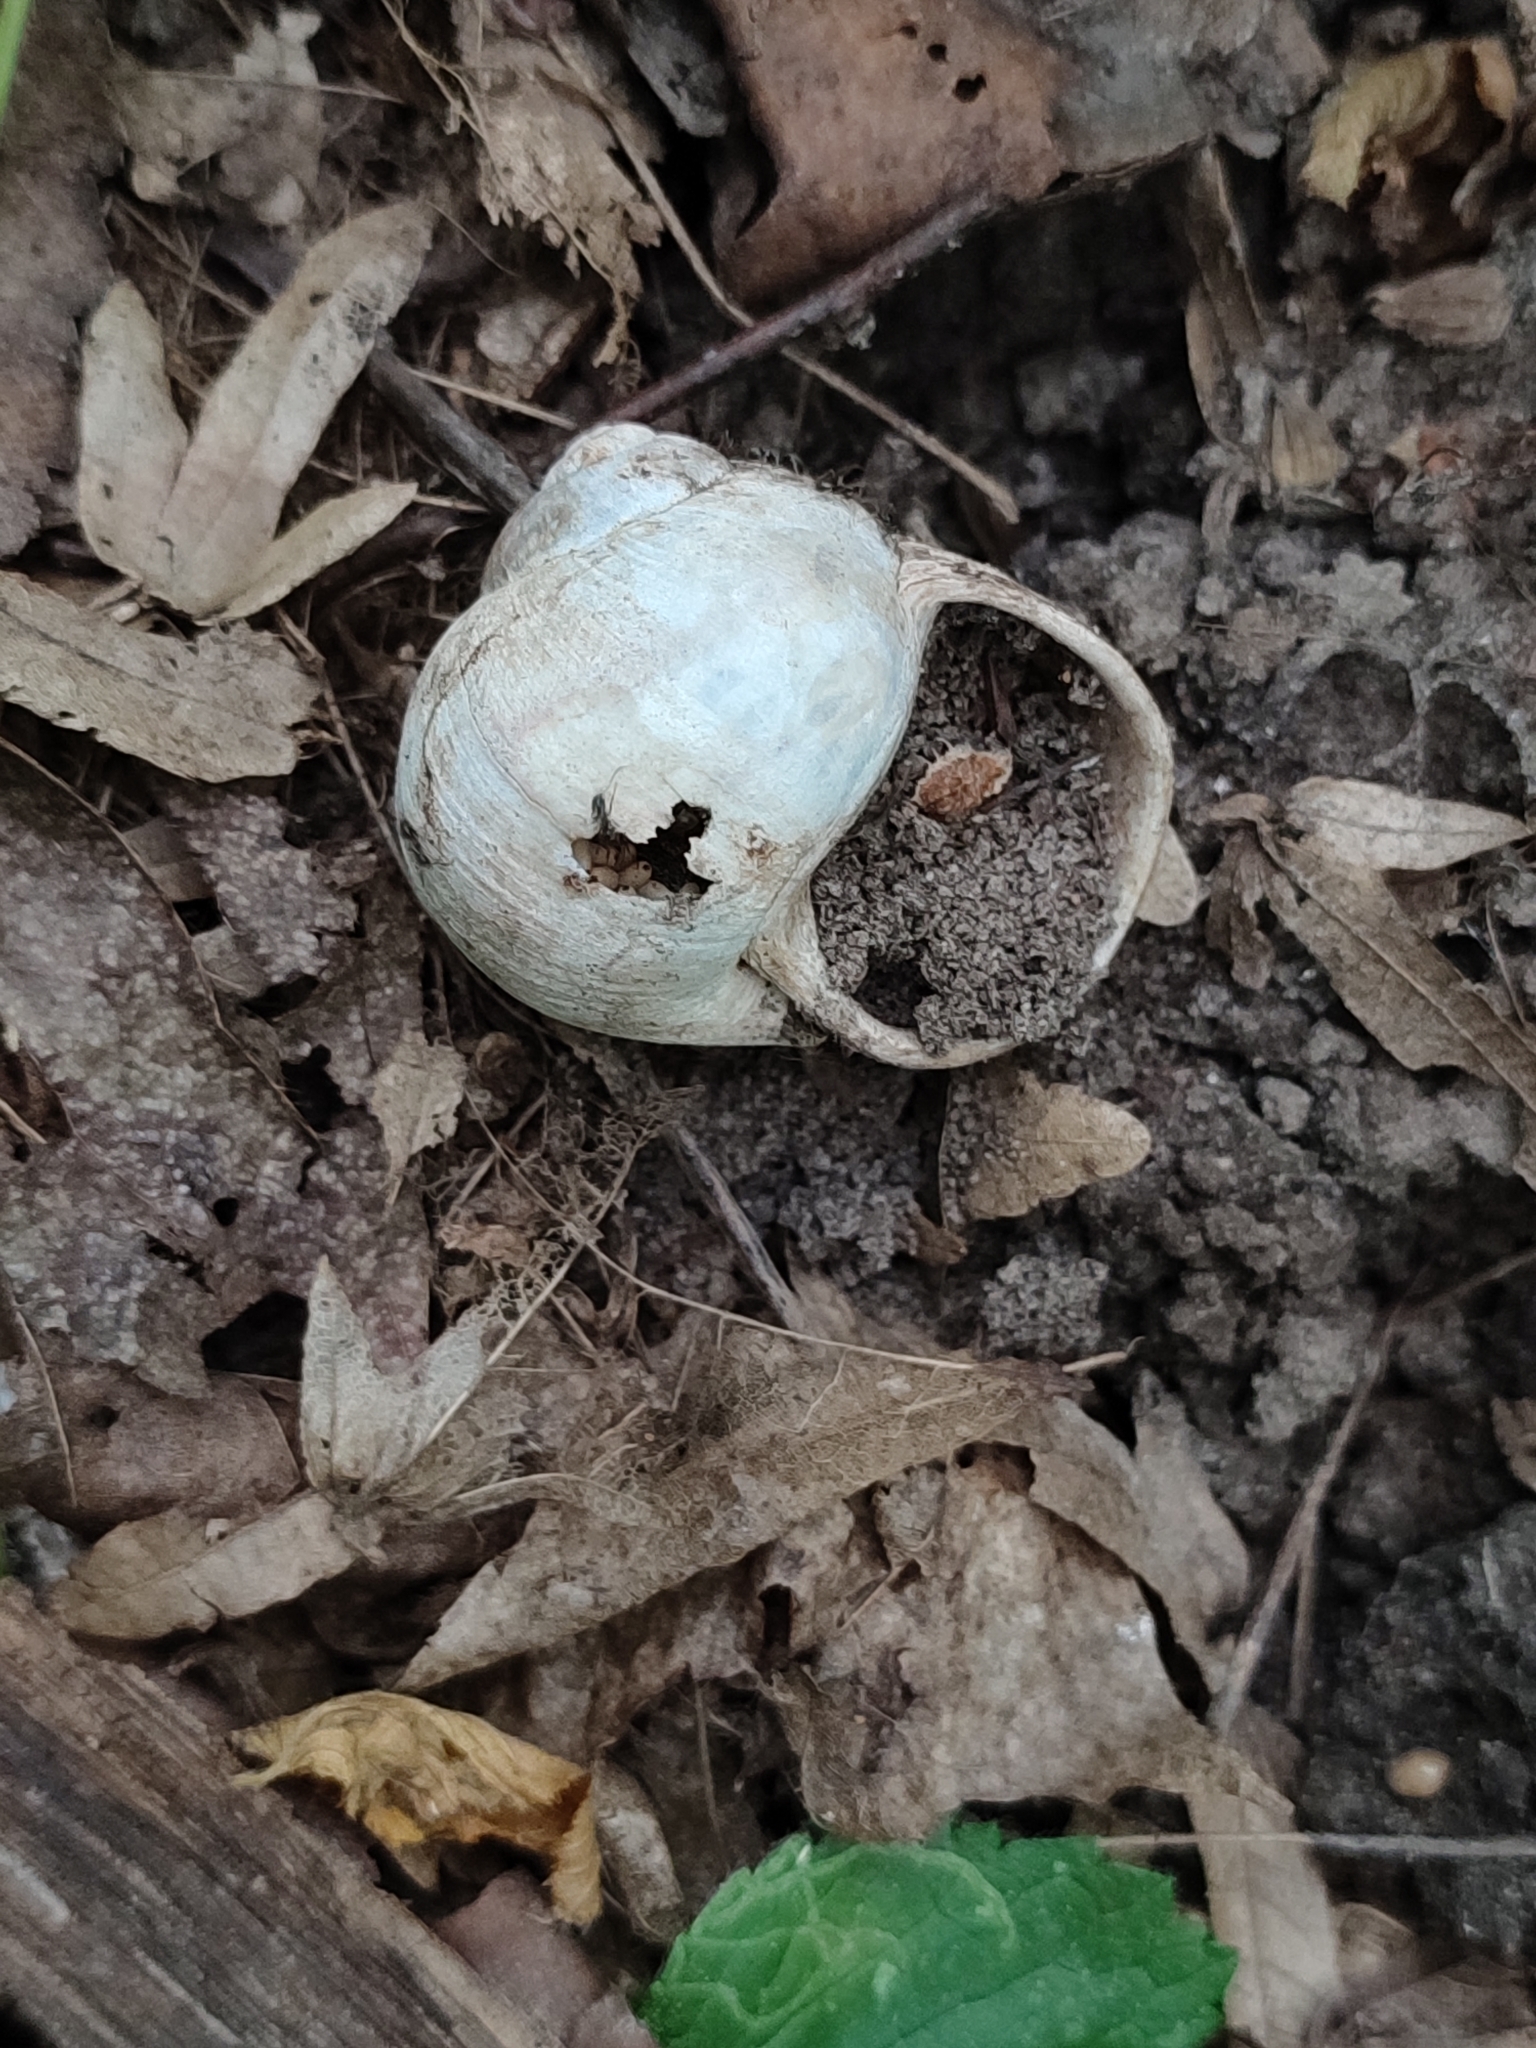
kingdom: Animalia
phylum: Mollusca
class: Gastropoda
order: Stylommatophora
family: Helicidae
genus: Helix
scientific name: Helix pomatia
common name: Roman snail
